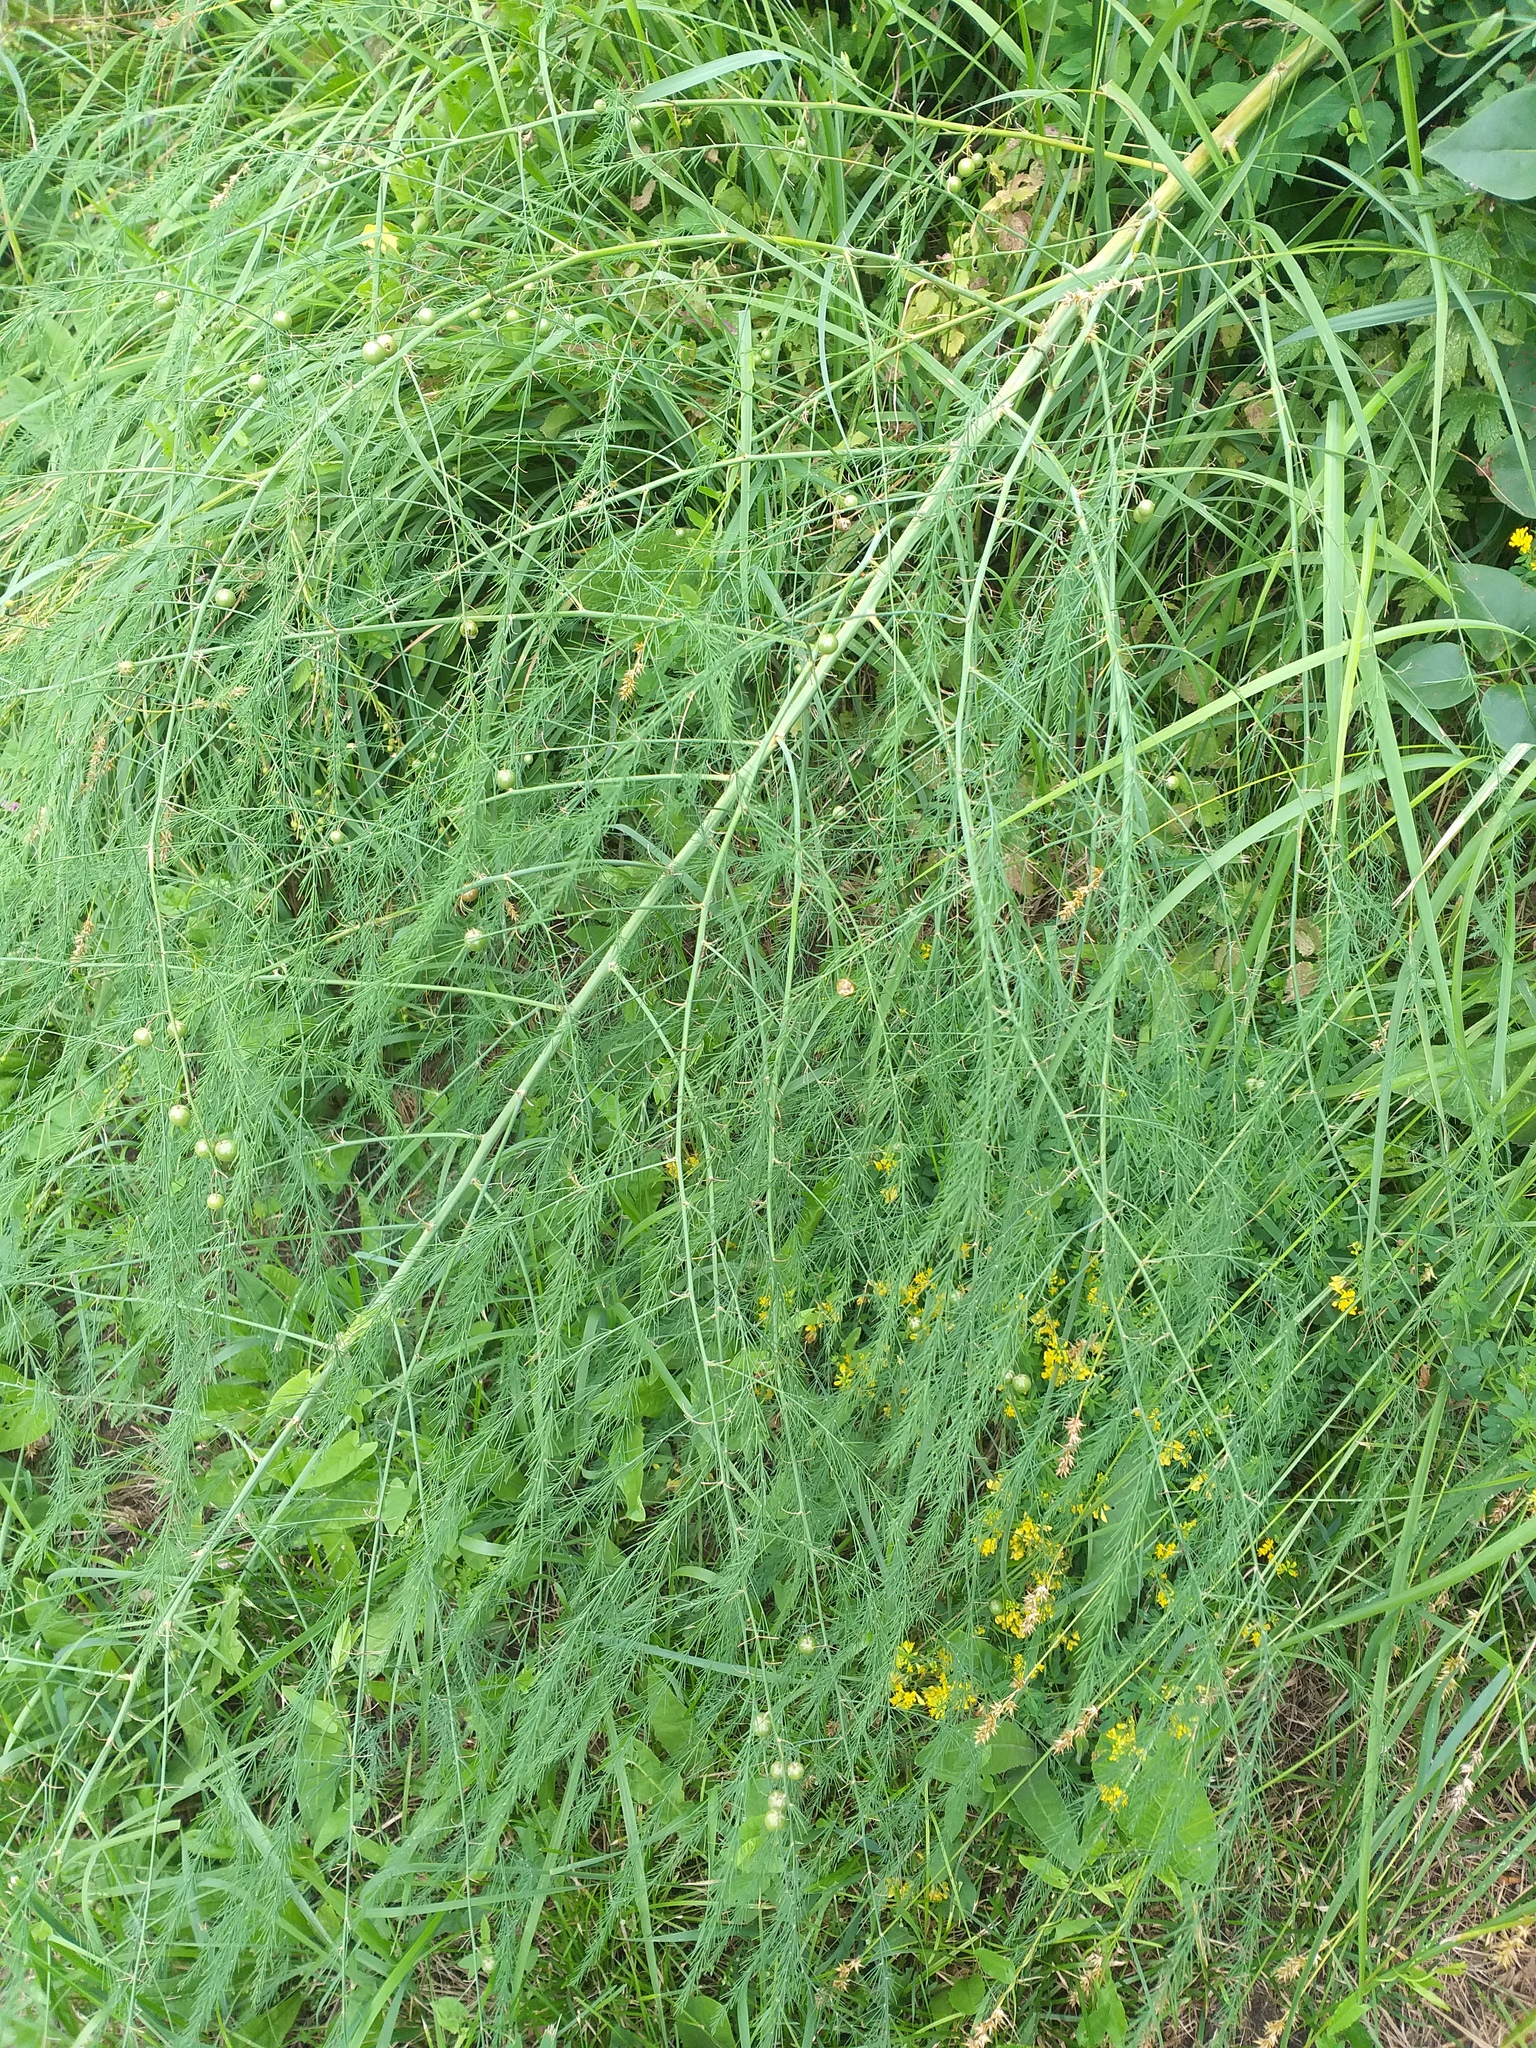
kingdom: Plantae
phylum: Tracheophyta
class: Liliopsida
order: Asparagales
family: Asparagaceae
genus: Asparagus
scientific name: Asparagus officinalis
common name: Garden asparagus
